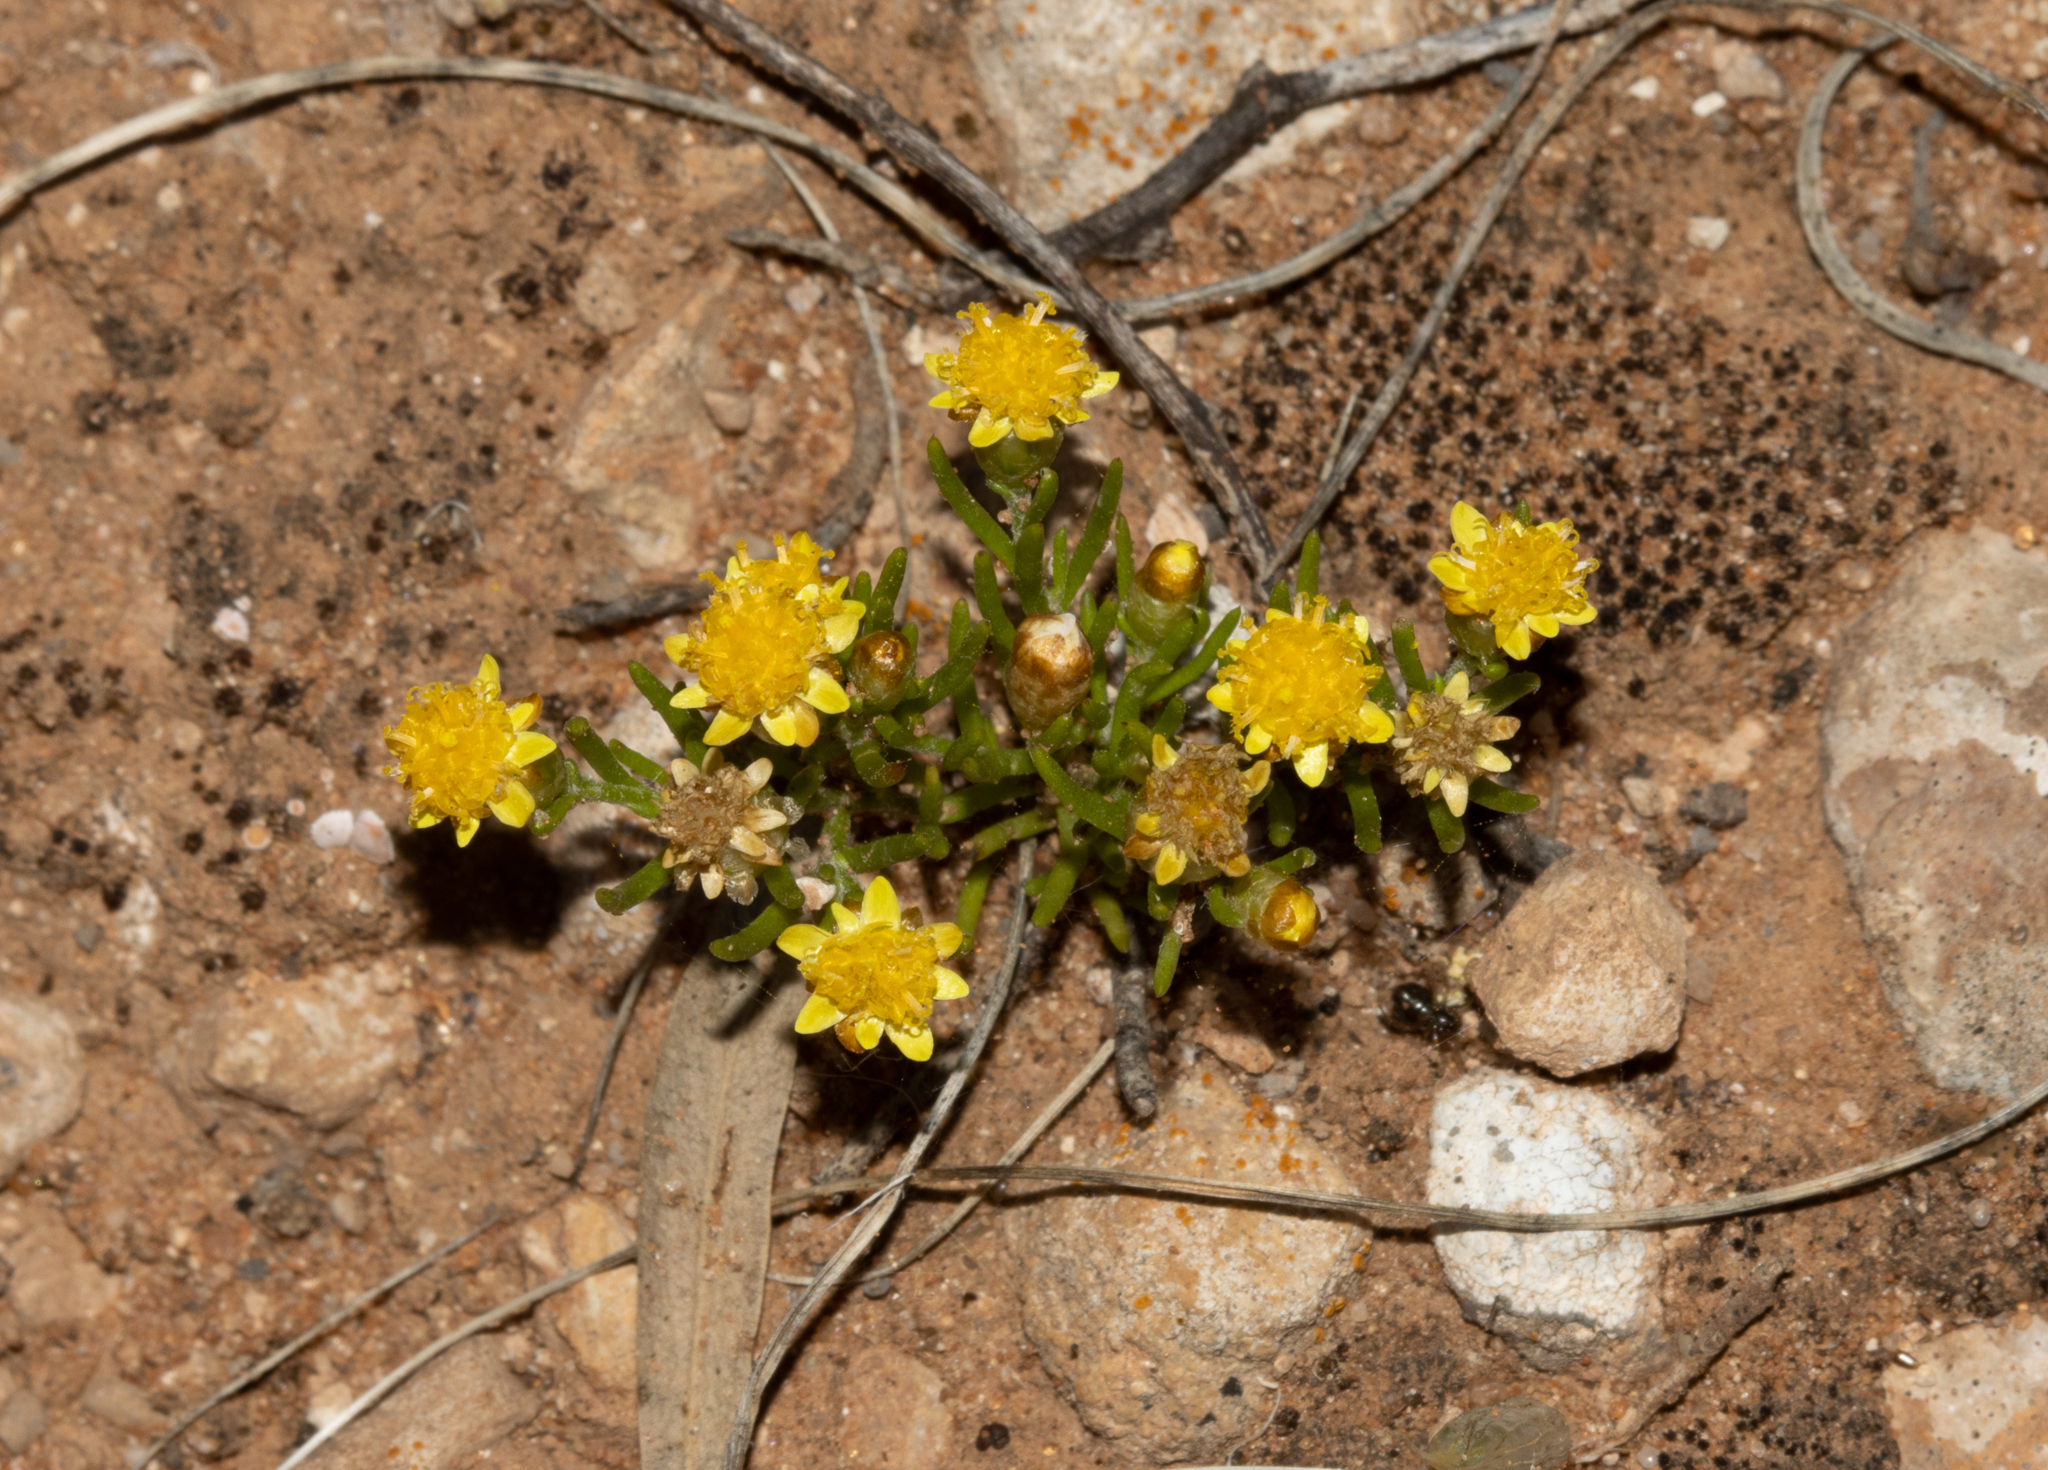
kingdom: Plantae
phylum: Tracheophyta
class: Magnoliopsida
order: Asterales
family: Asteraceae
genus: Hyalosperma
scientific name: Hyalosperma semisterile
